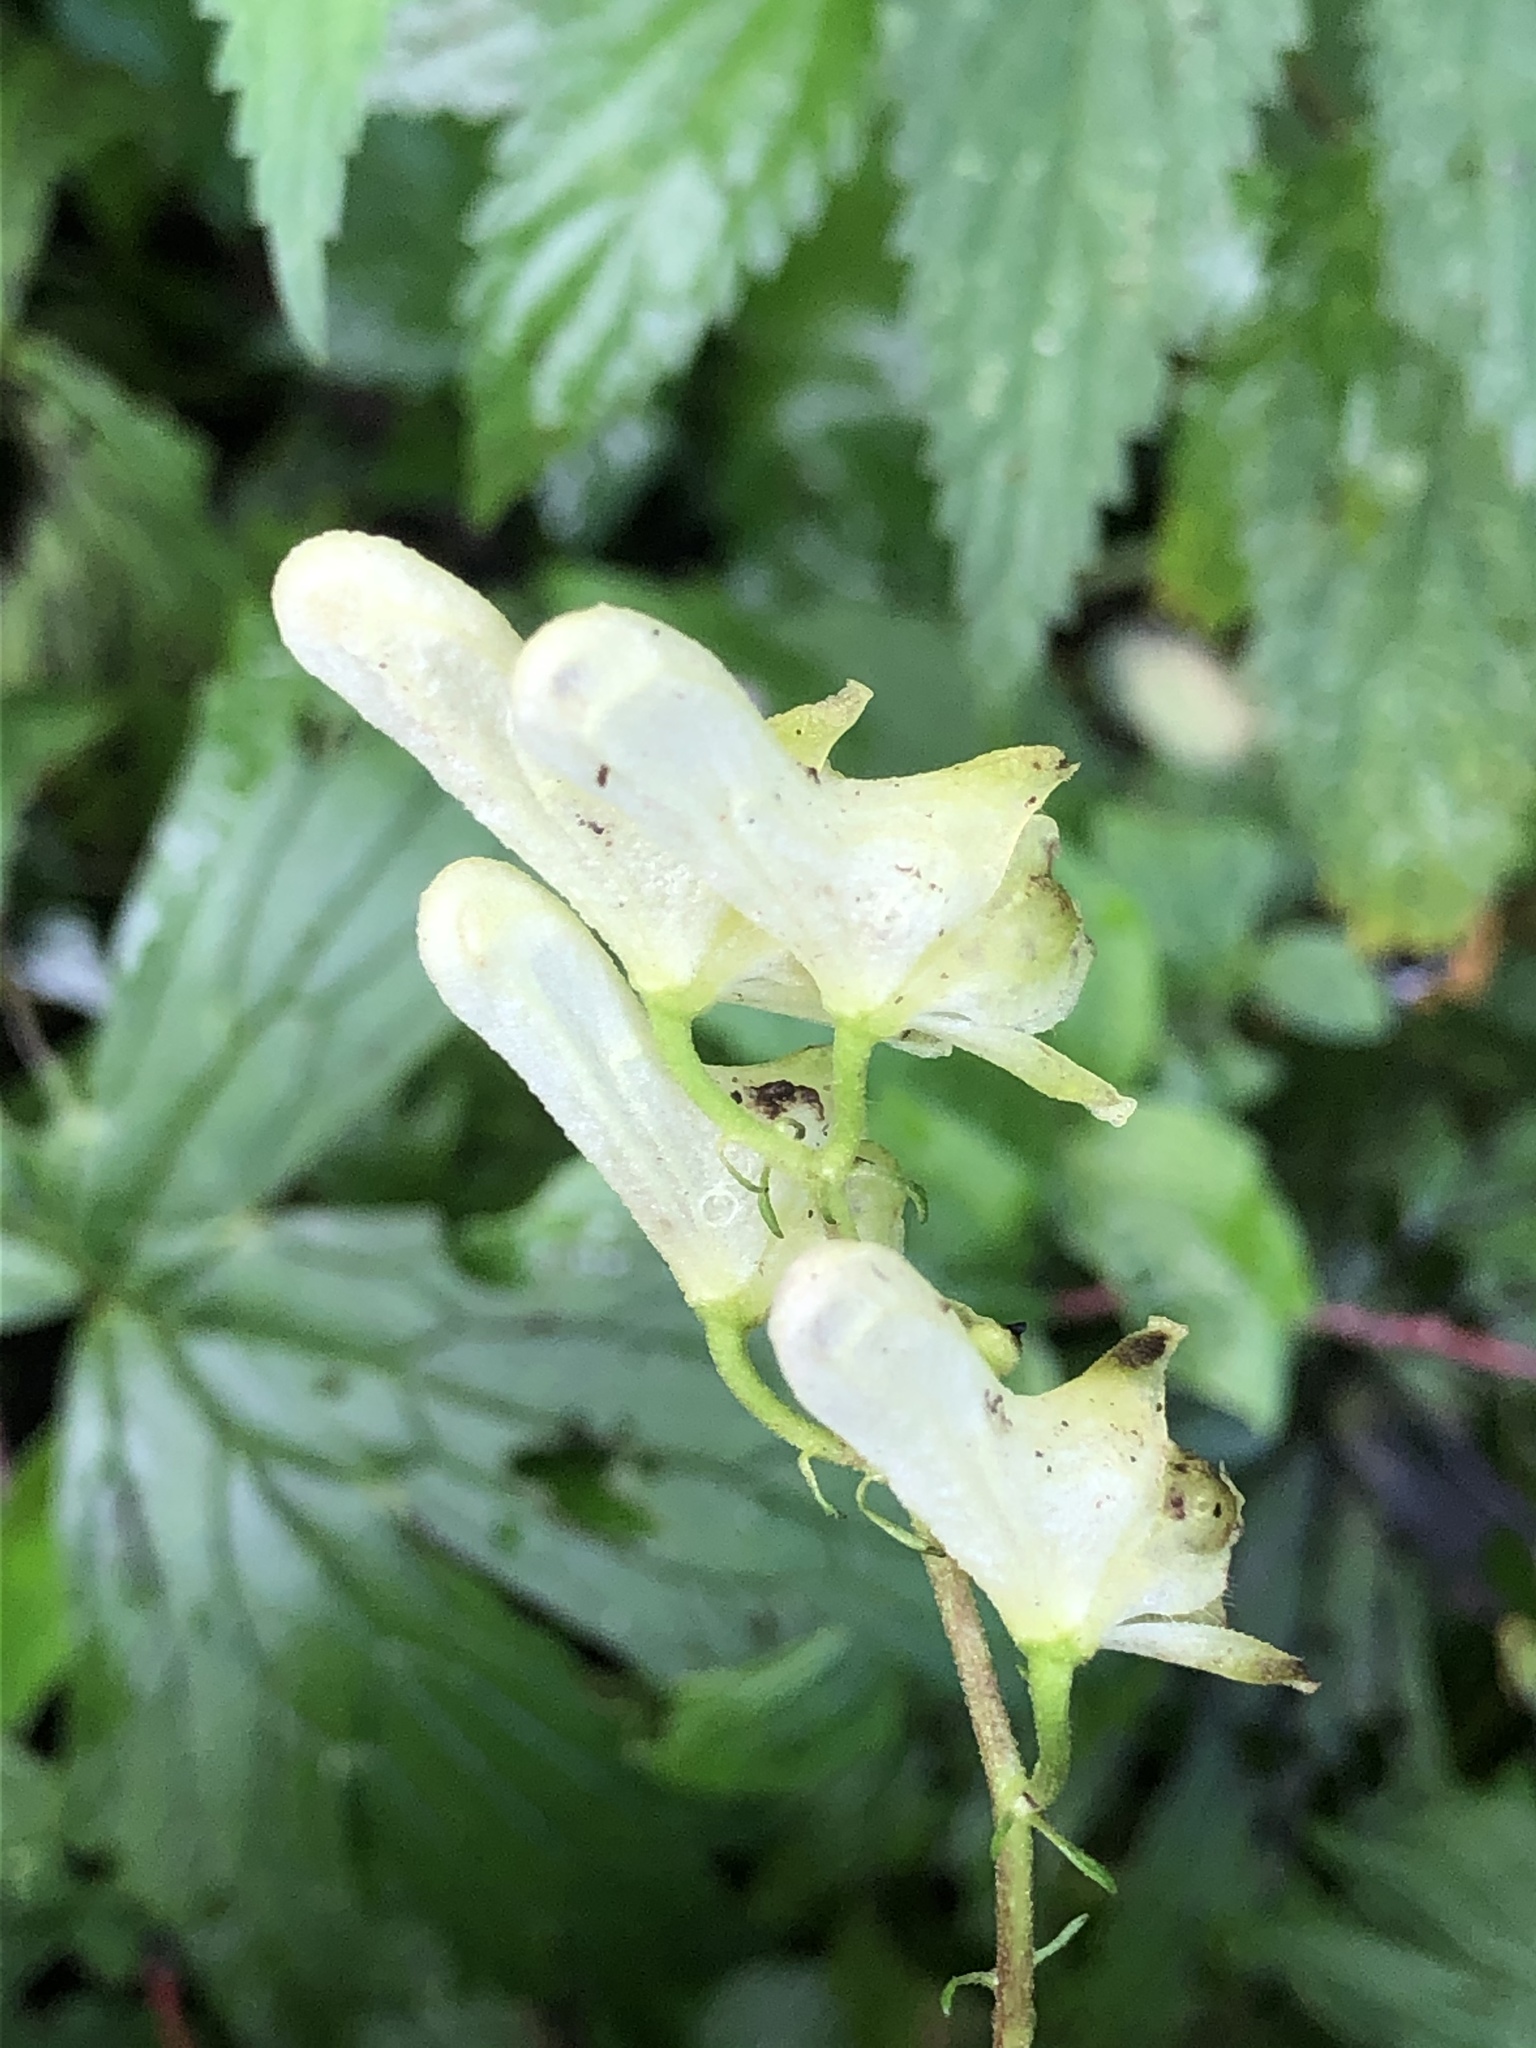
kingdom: Plantae
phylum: Tracheophyta
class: Magnoliopsida
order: Ranunculales
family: Ranunculaceae
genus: Aconitum
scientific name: Aconitum lycoctonum
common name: Wolf's-bane
